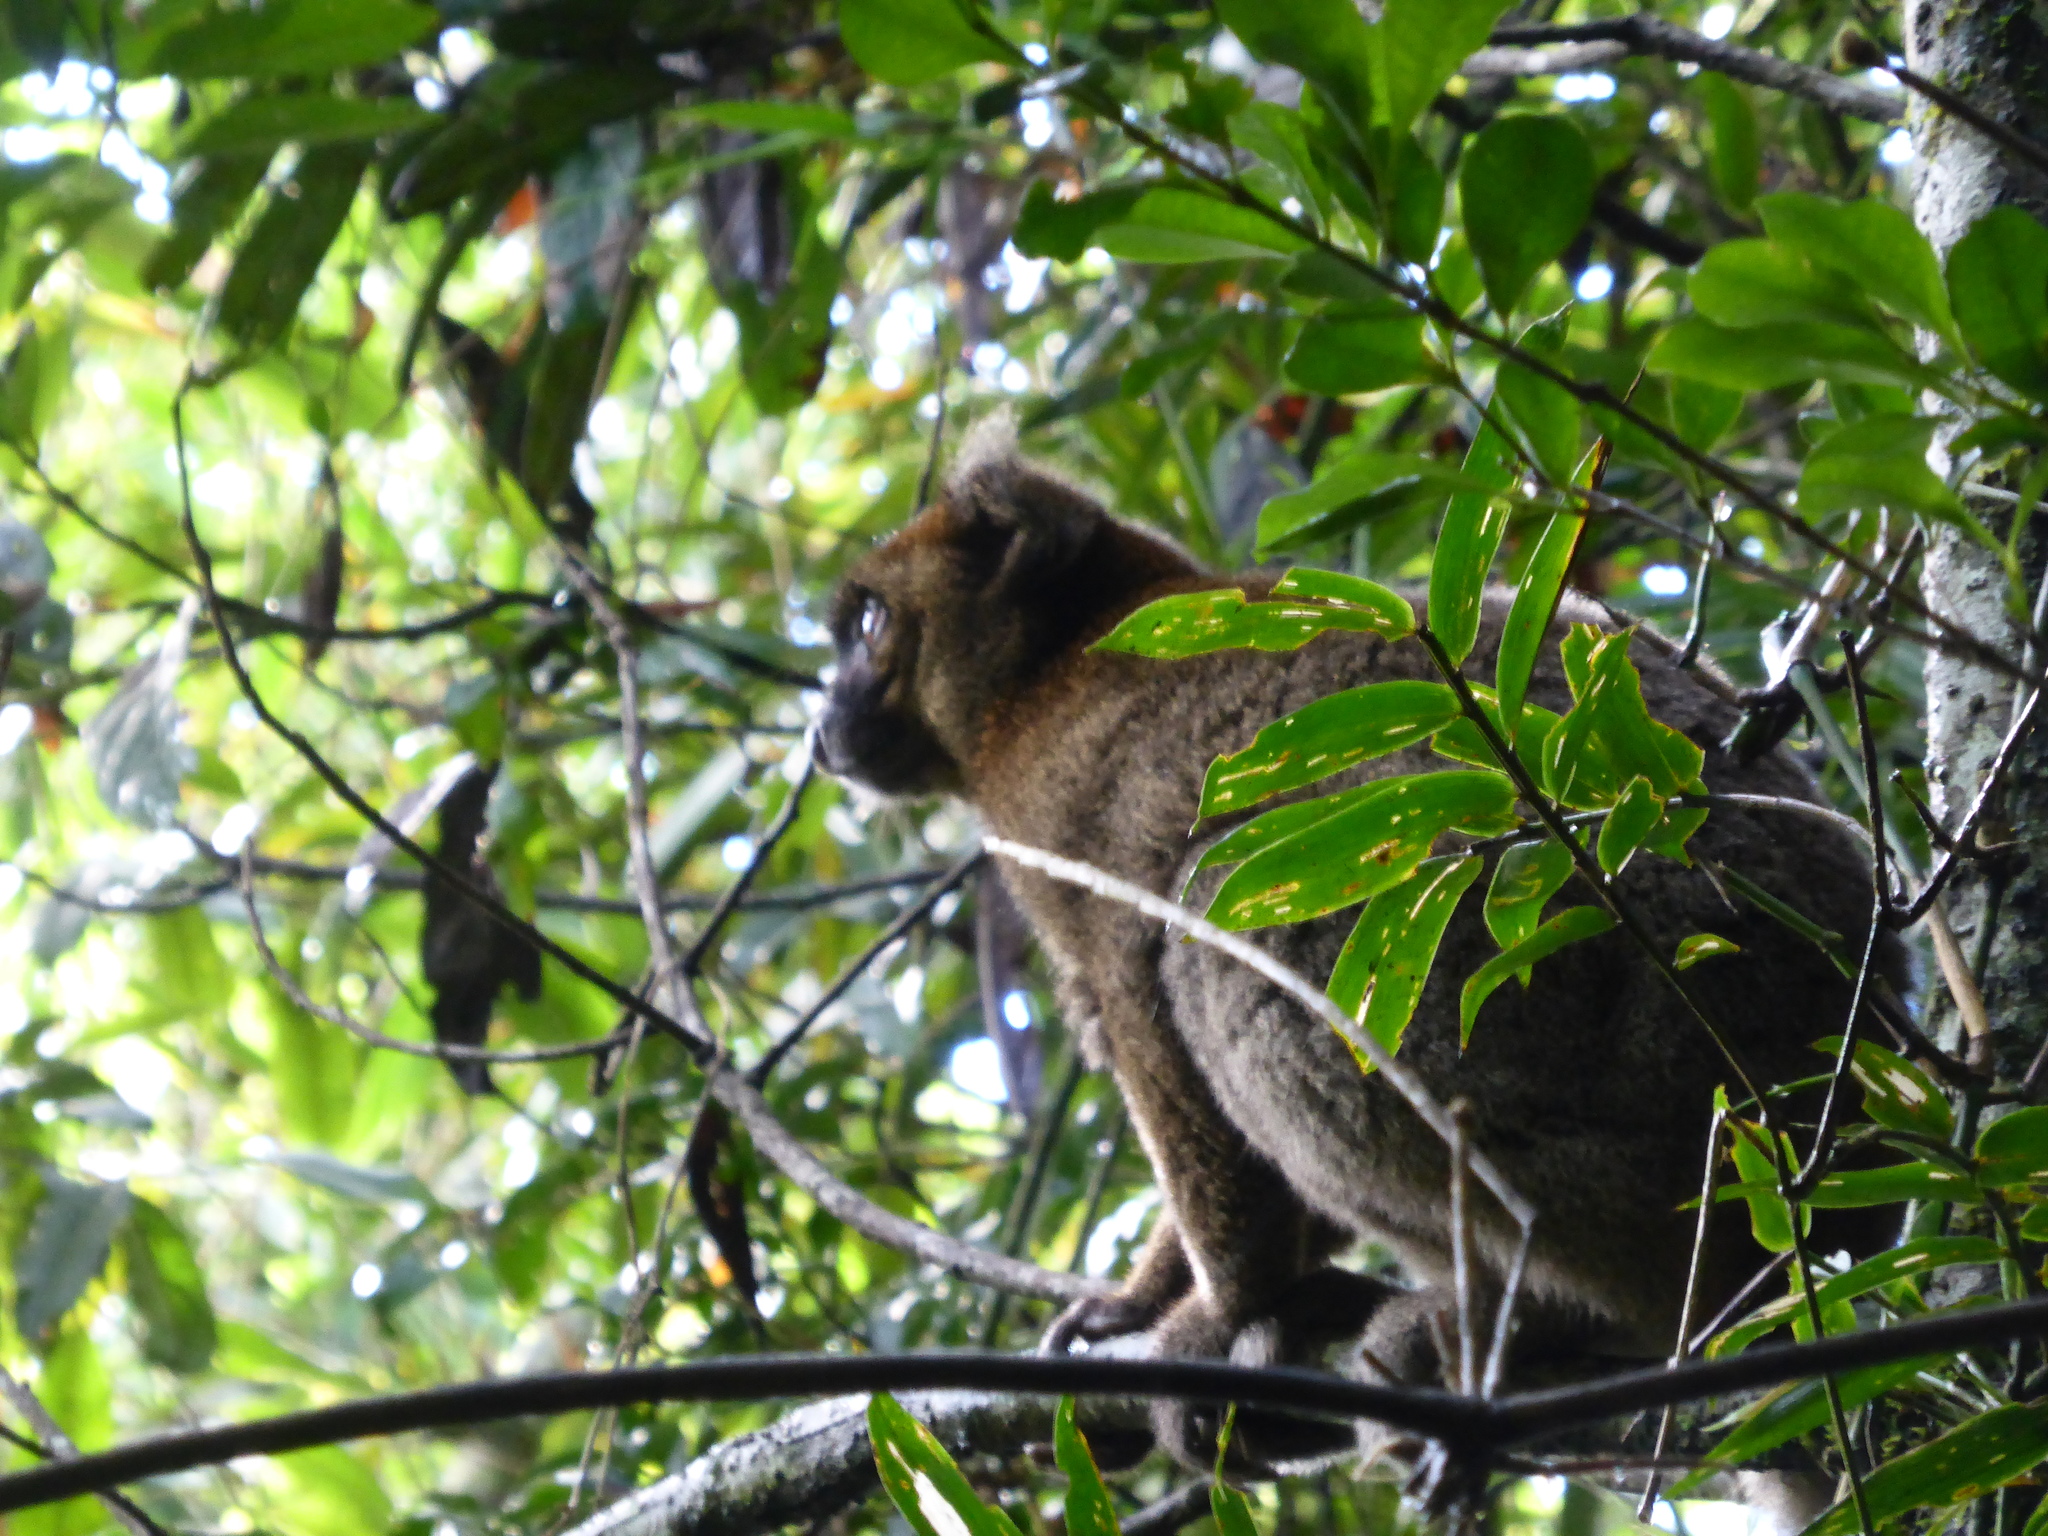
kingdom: Animalia
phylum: Chordata
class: Mammalia
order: Primates
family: Lemuridae
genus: Prolemur
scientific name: Prolemur simus
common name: Greater bamboo lemur
